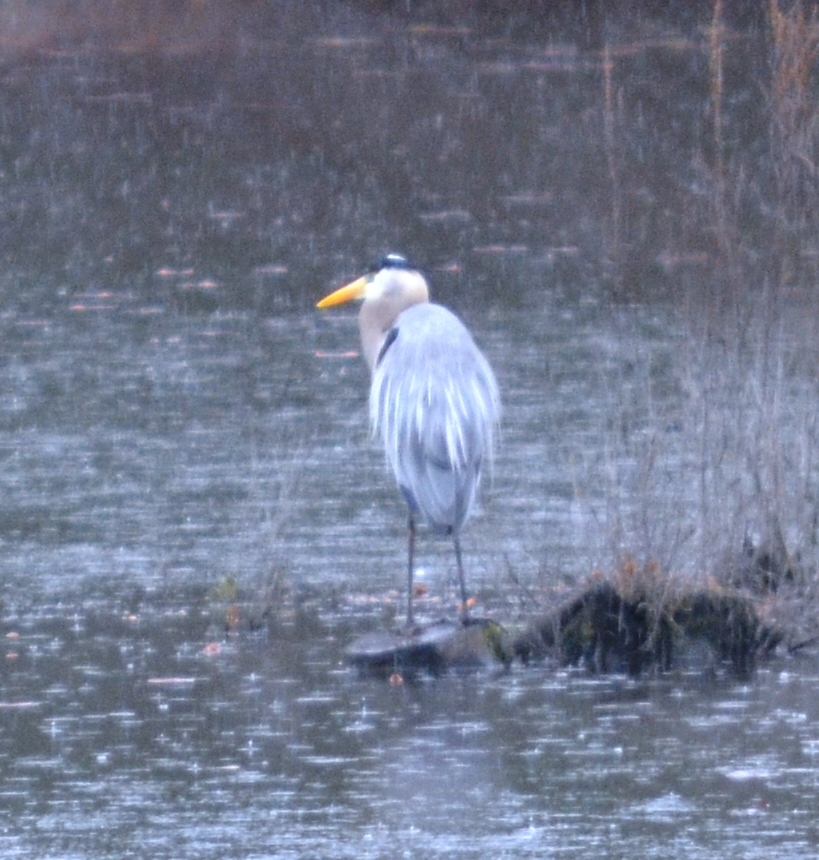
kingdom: Animalia
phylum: Chordata
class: Aves
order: Pelecaniformes
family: Ardeidae
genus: Ardea
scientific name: Ardea herodias
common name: Great blue heron
